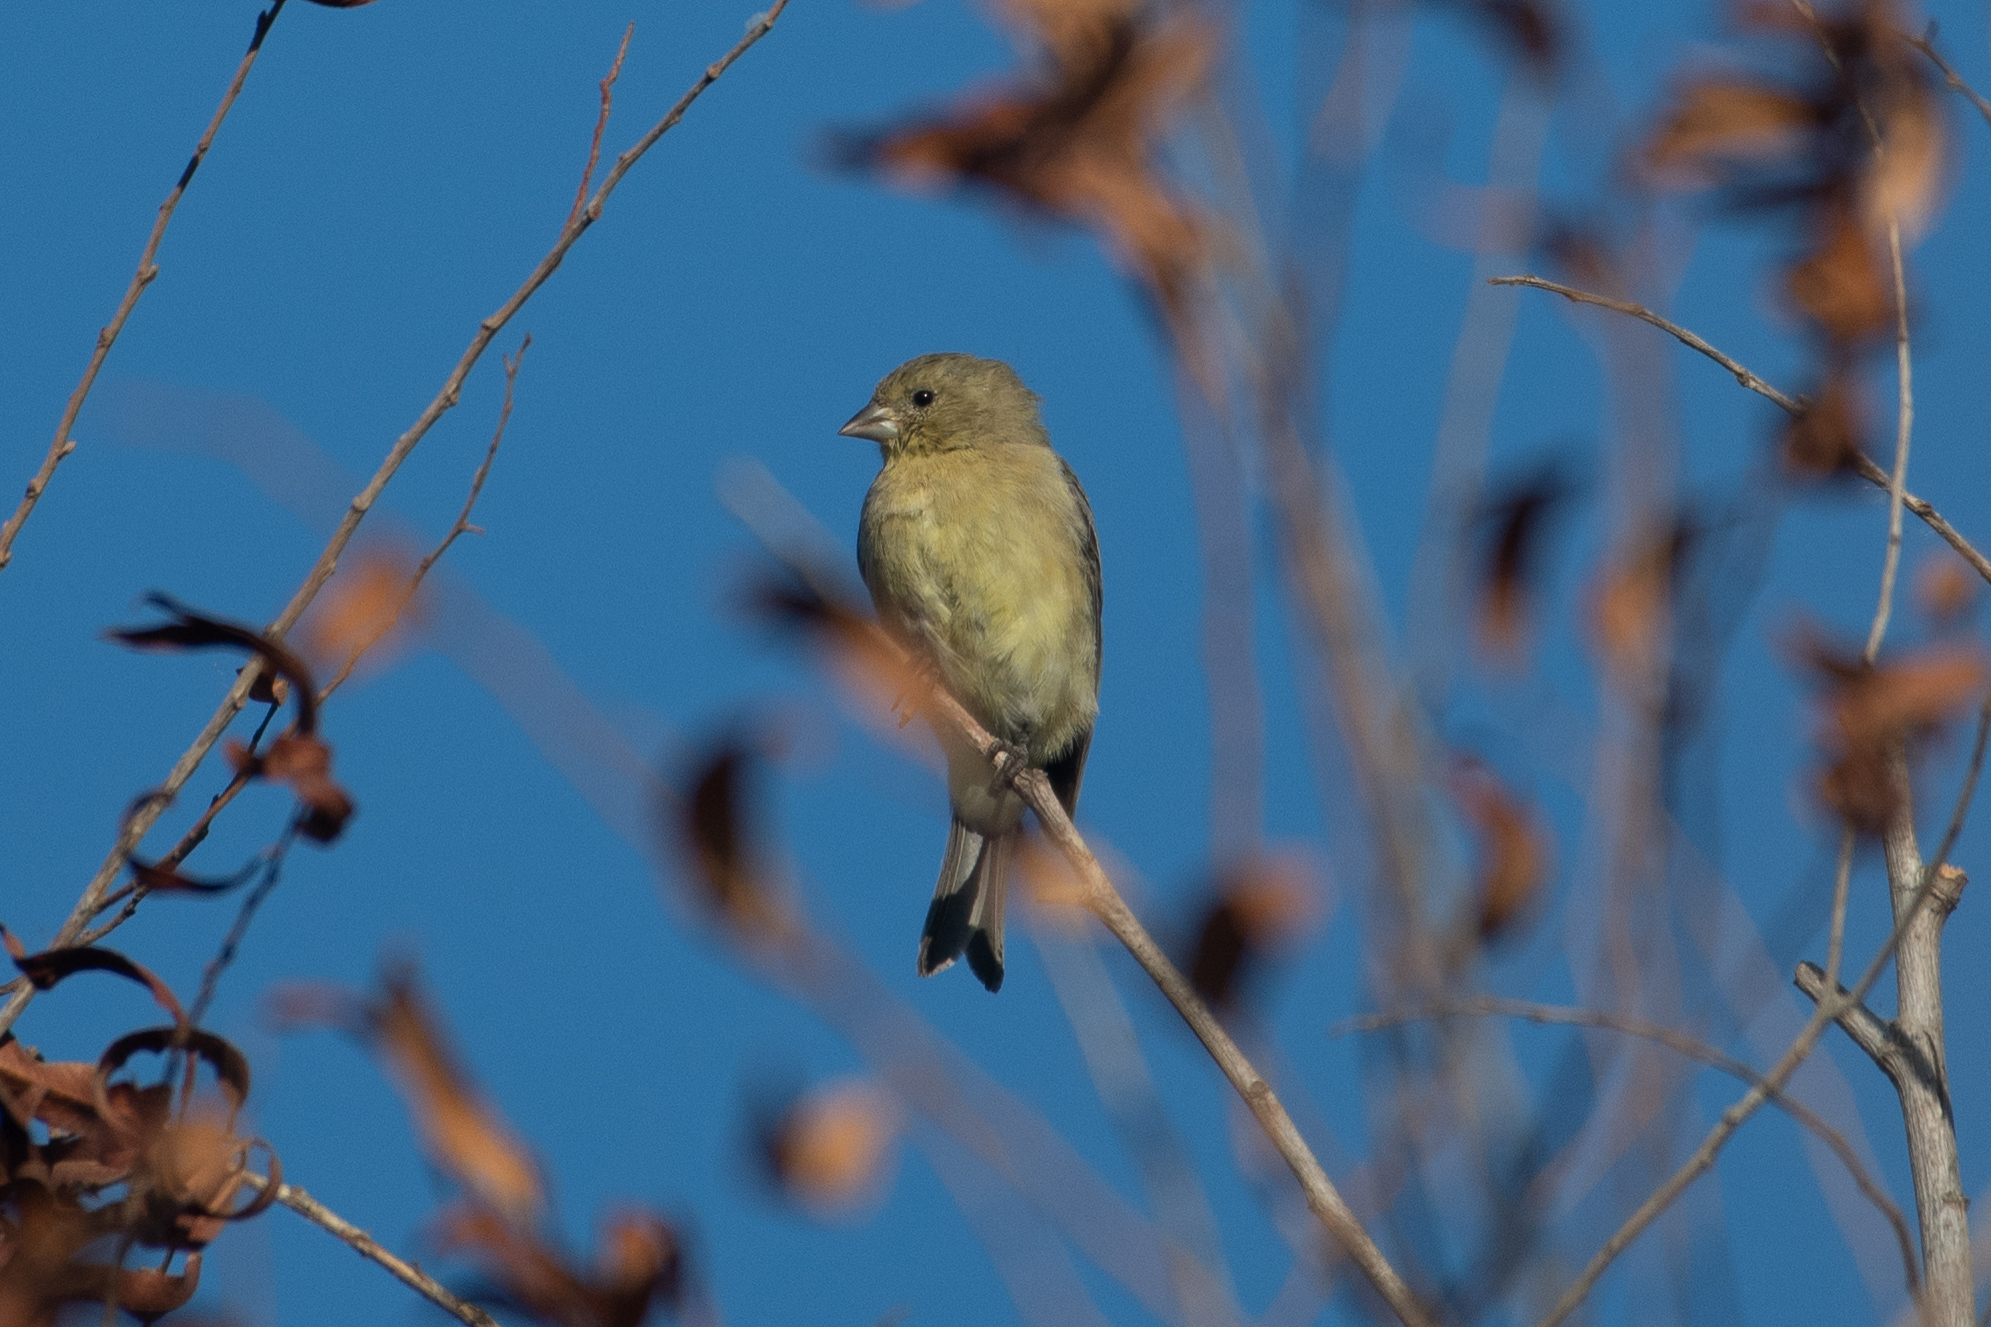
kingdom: Animalia
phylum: Chordata
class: Aves
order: Passeriformes
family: Fringillidae
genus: Spinus
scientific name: Spinus psaltria
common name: Lesser goldfinch
